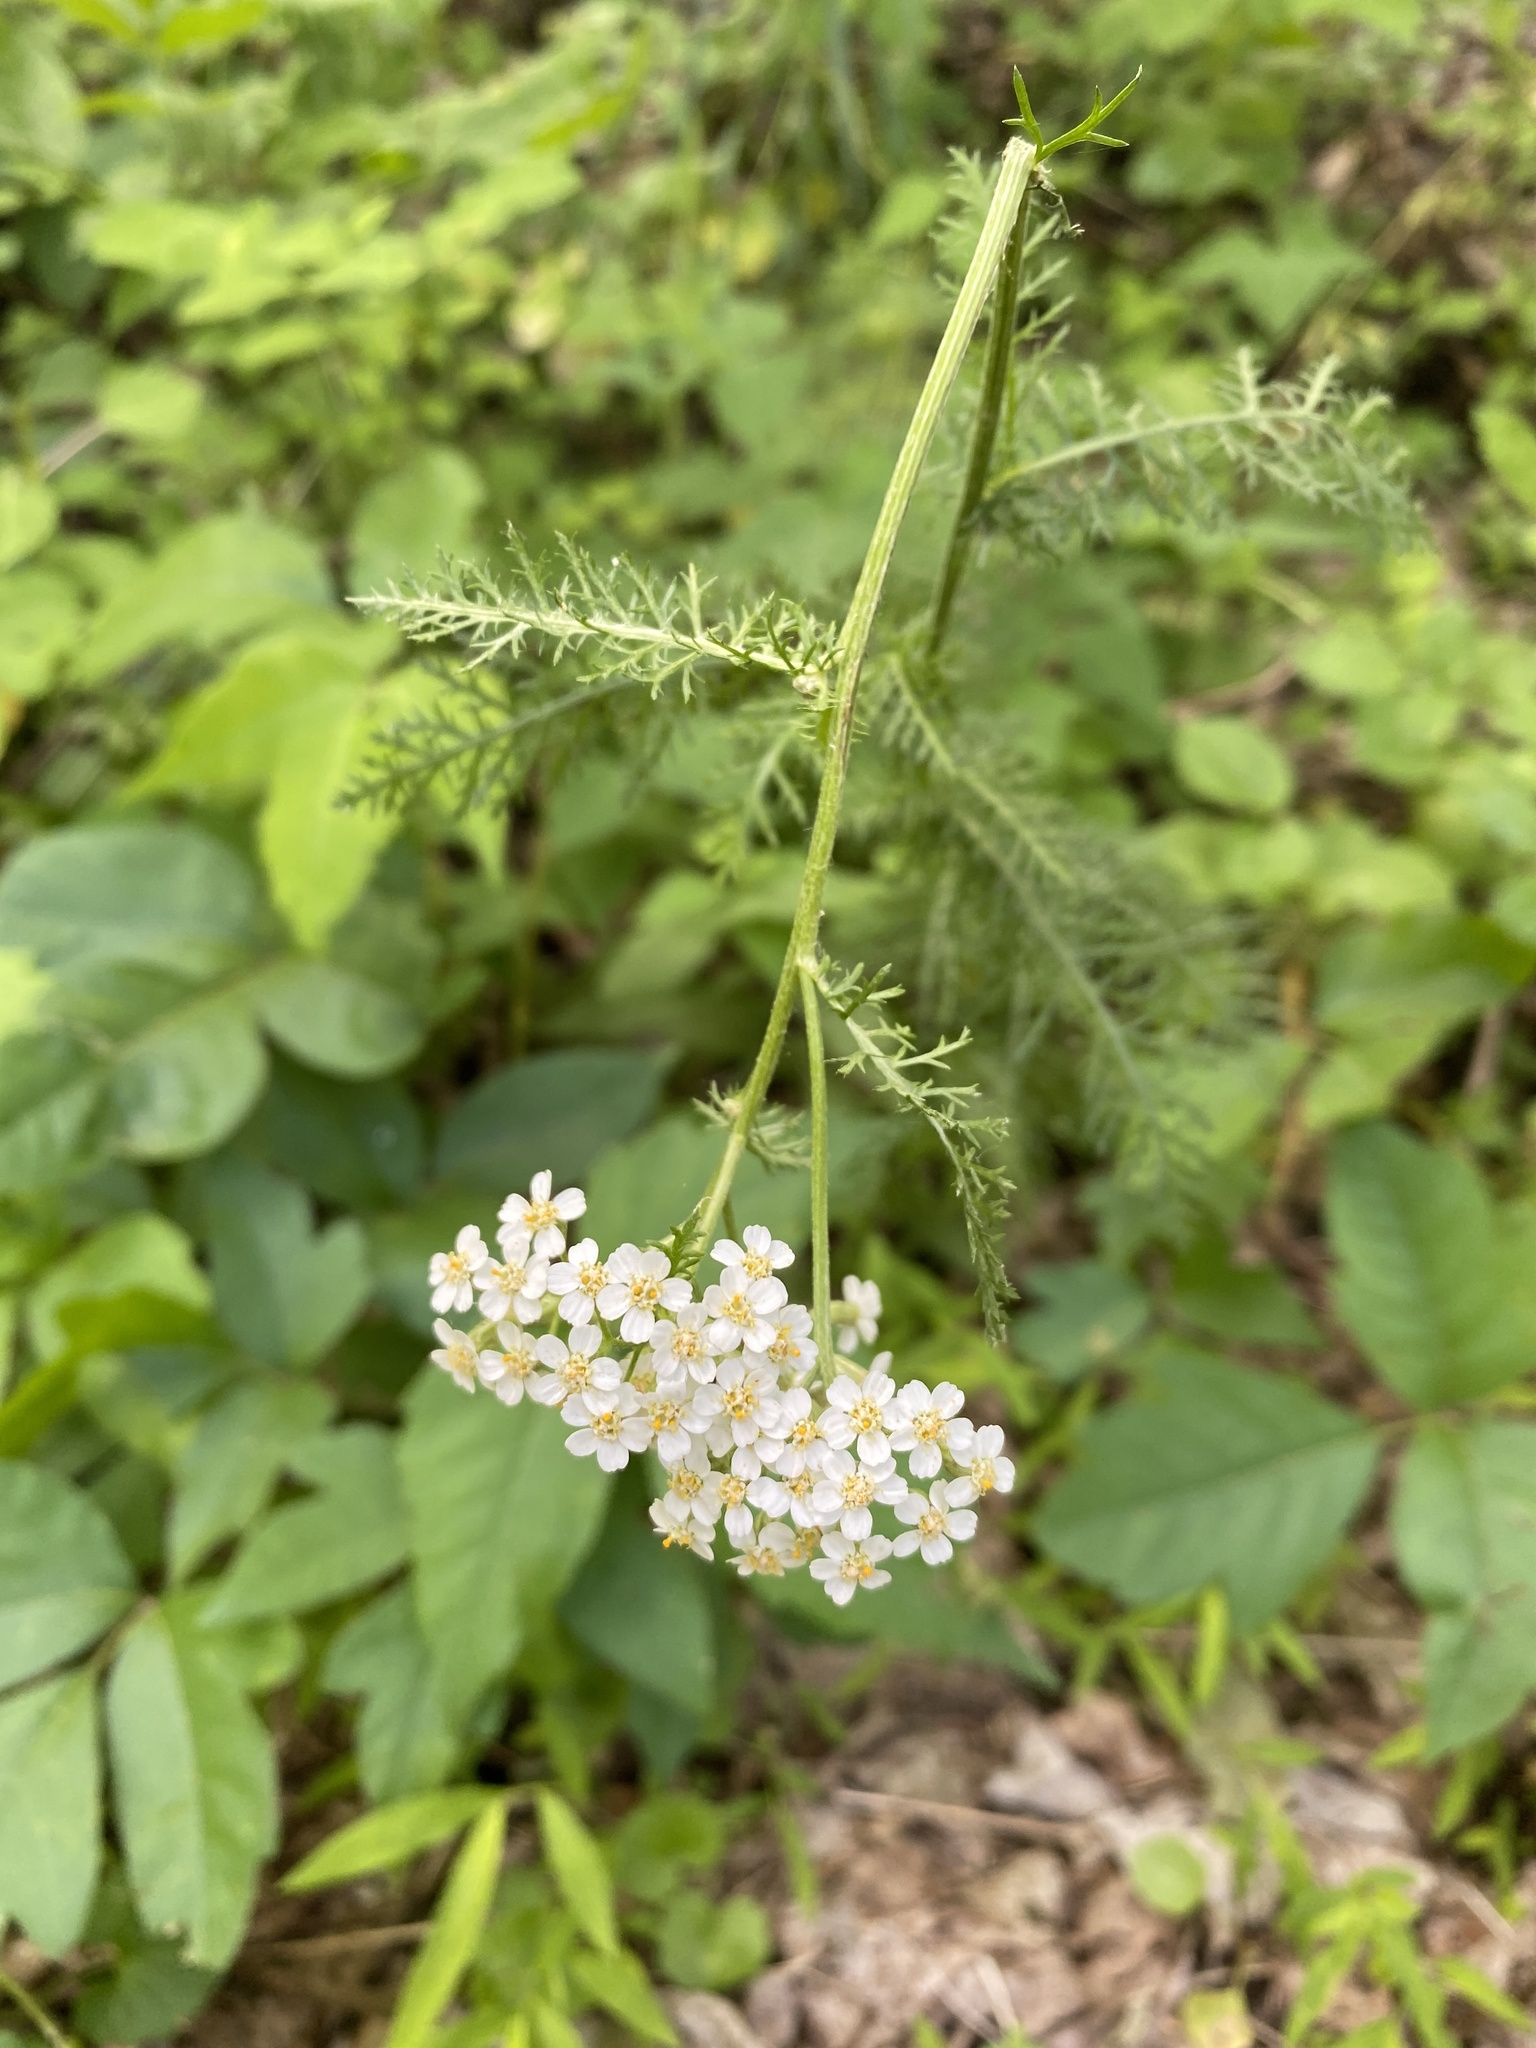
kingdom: Plantae
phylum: Tracheophyta
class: Magnoliopsida
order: Asterales
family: Asteraceae
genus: Achillea
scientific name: Achillea millefolium
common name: Yarrow
